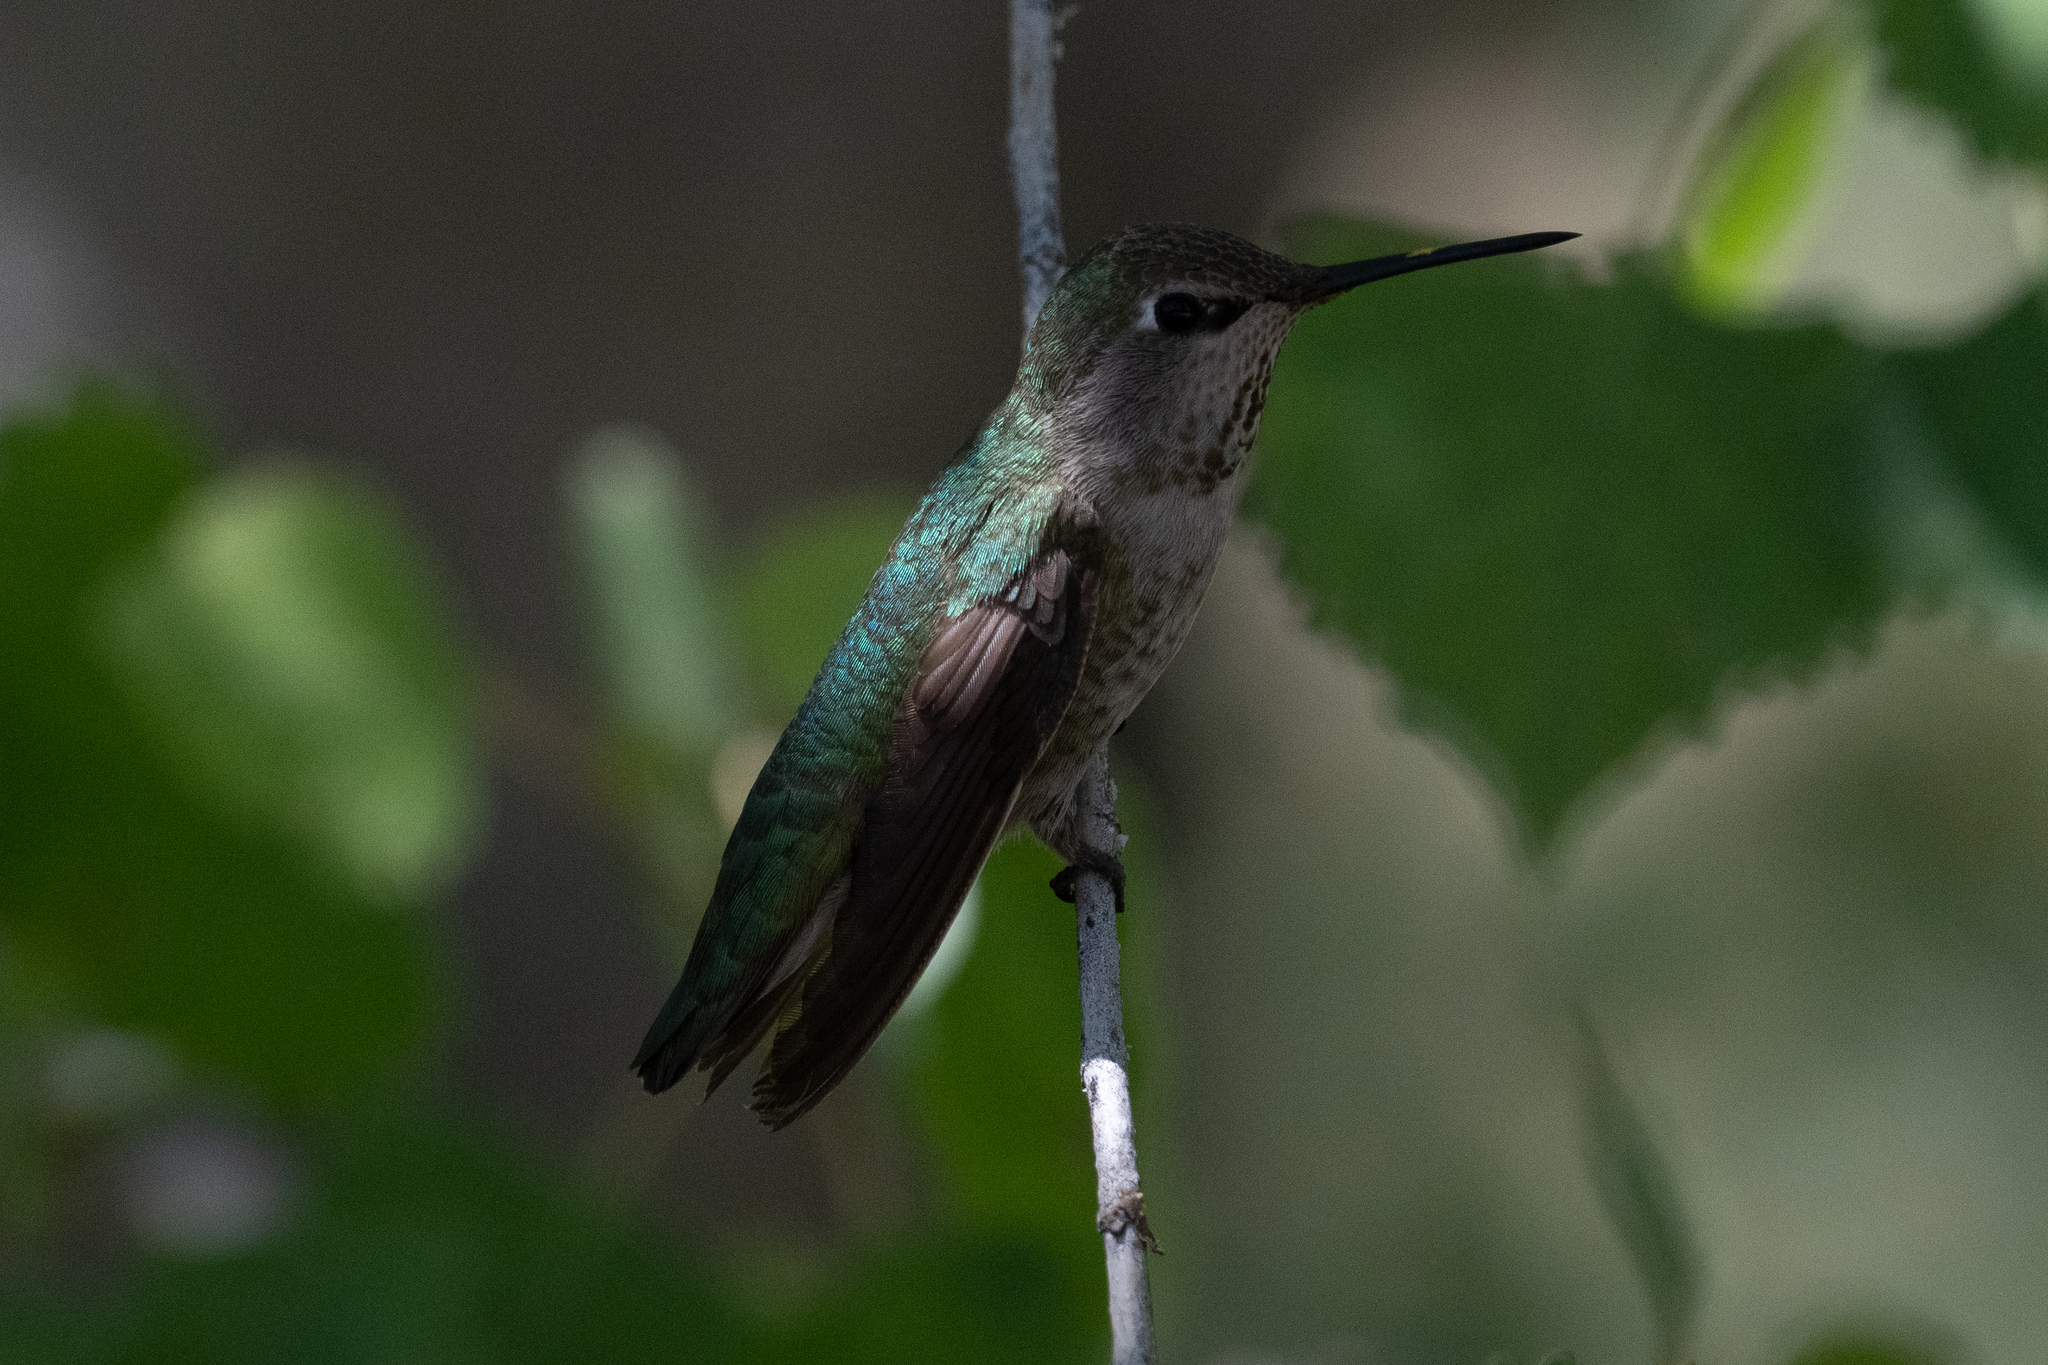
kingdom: Animalia
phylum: Chordata
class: Aves
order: Apodiformes
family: Trochilidae
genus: Calypte
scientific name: Calypte anna
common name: Anna's hummingbird
